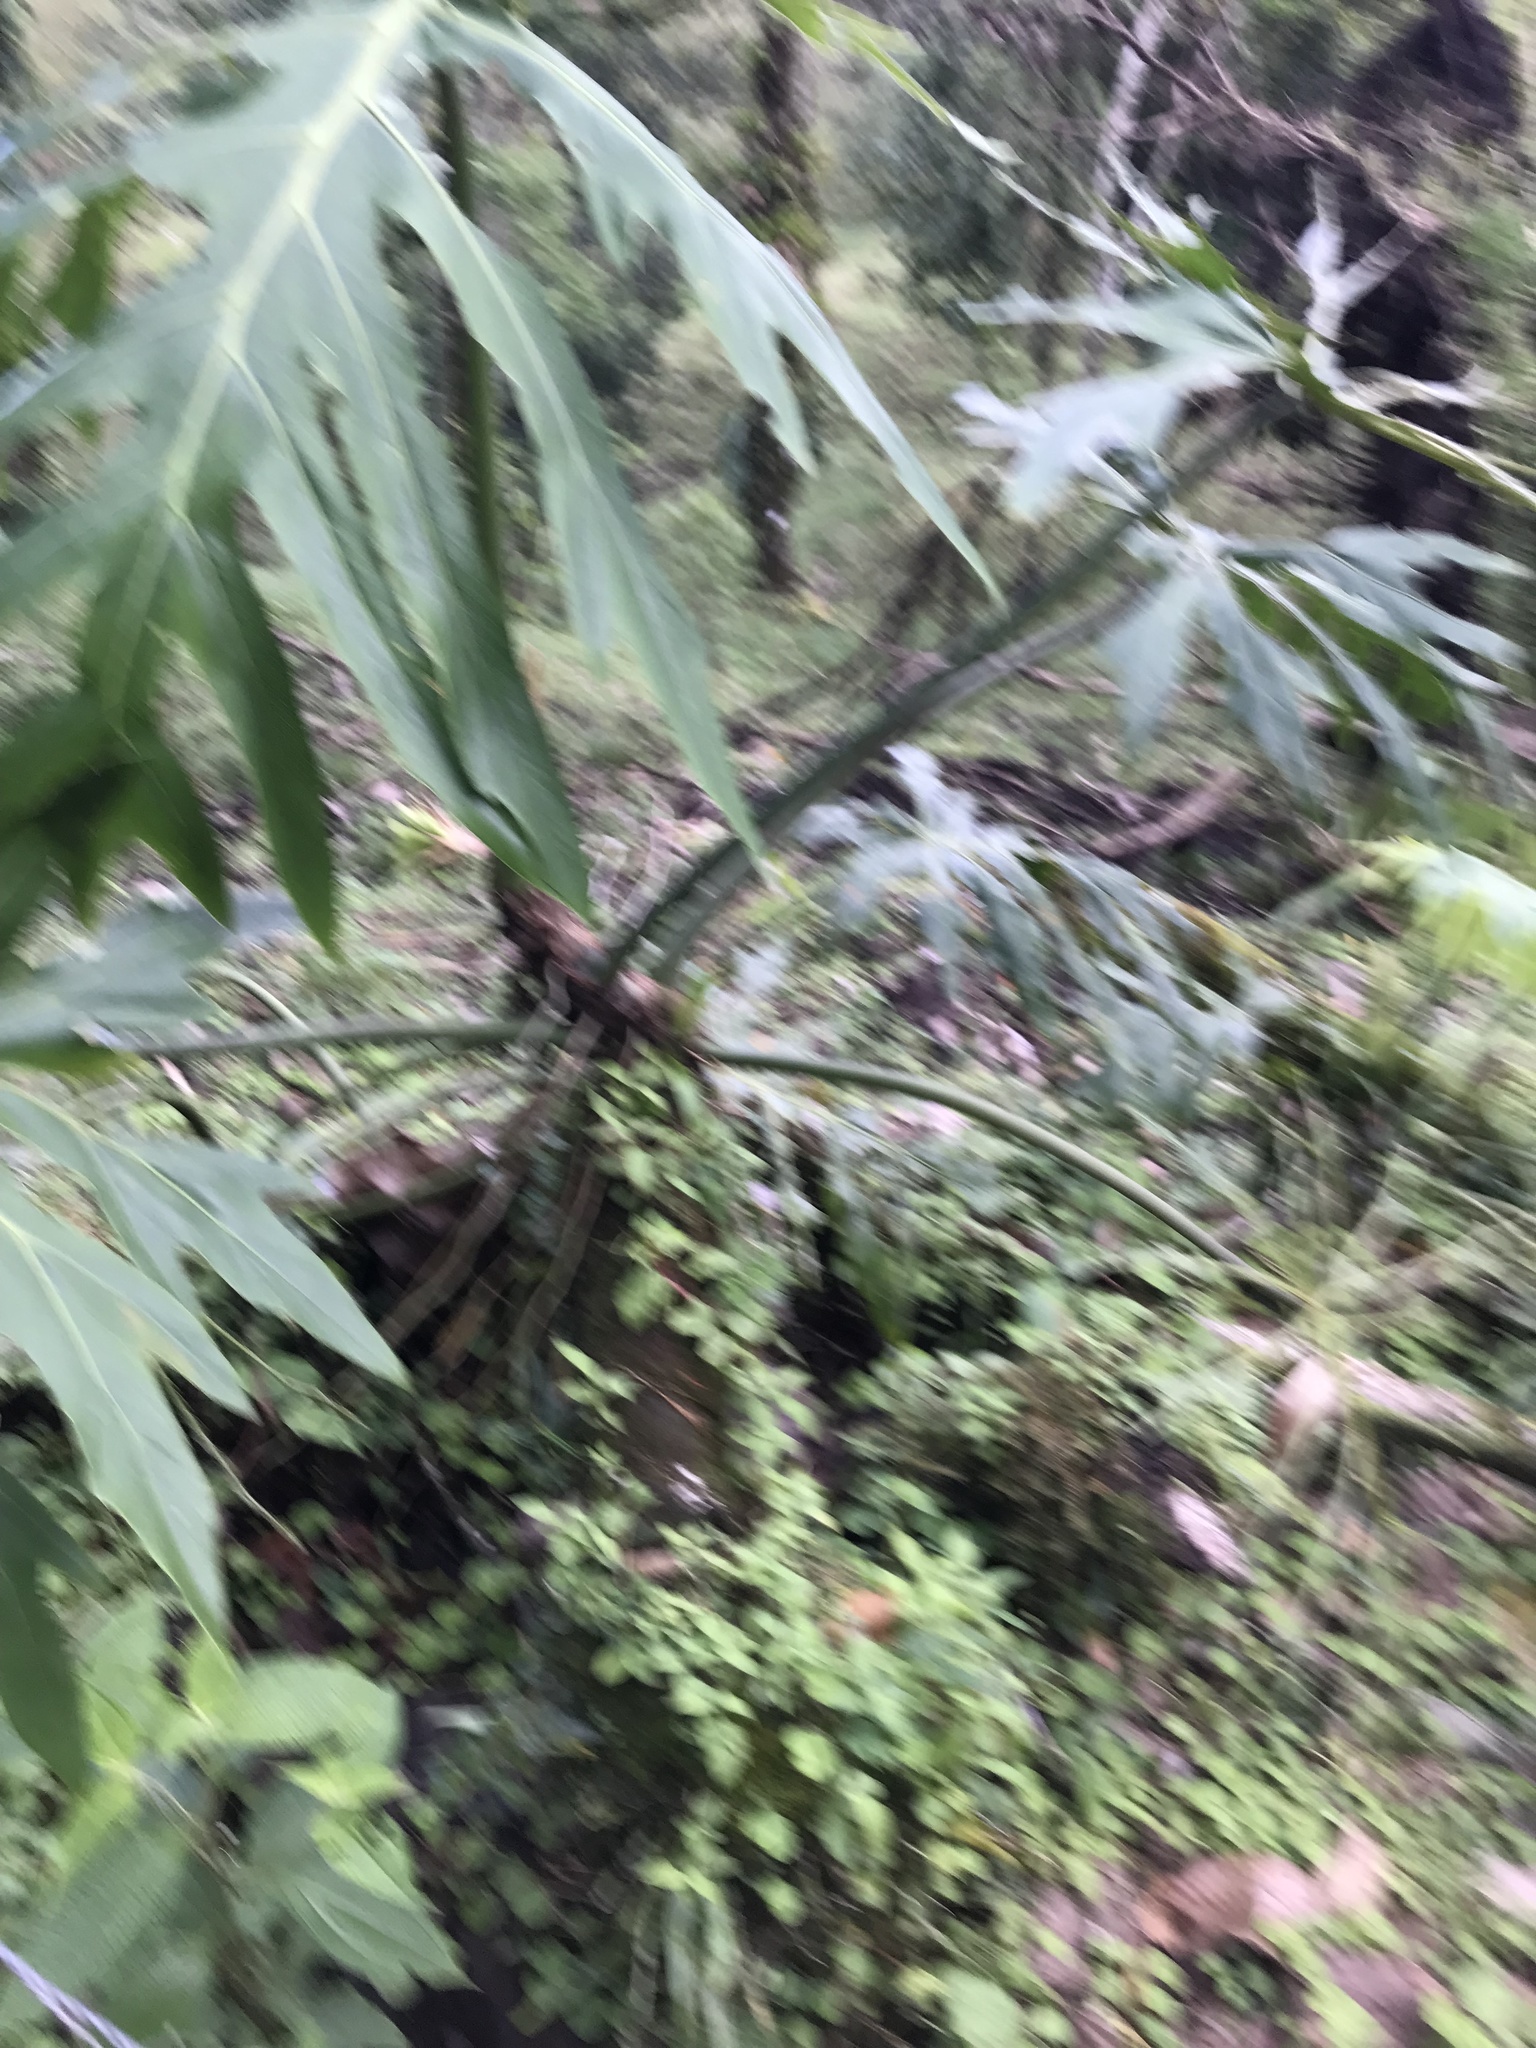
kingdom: Plantae
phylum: Tracheophyta
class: Liliopsida
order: Alismatales
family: Araceae
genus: Philodendron
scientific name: Philodendron radiatum
